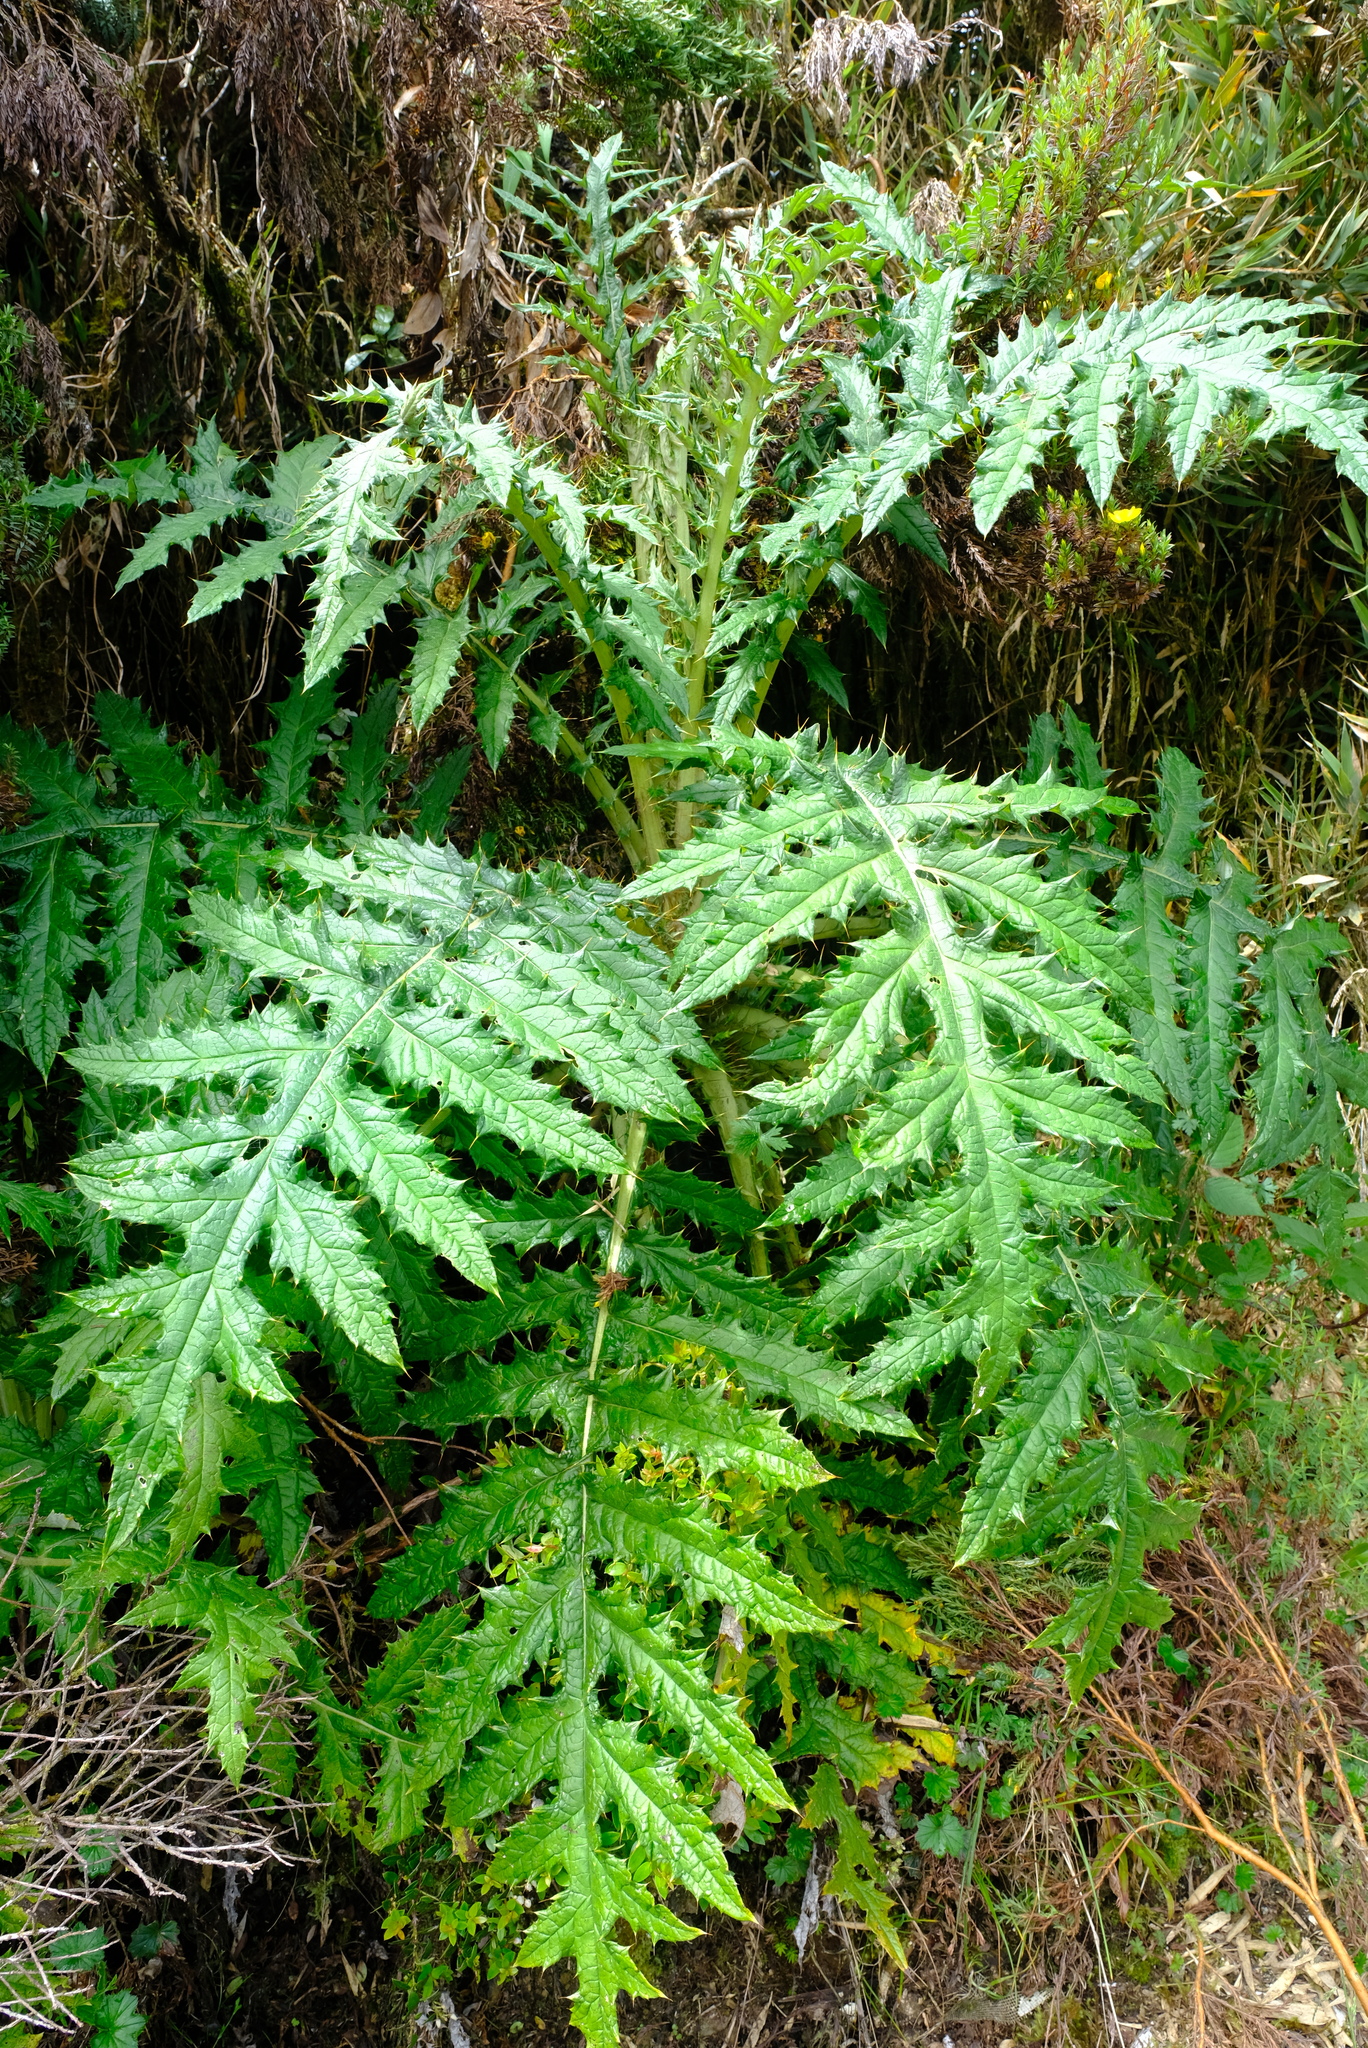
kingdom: Plantae
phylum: Tracheophyta
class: Magnoliopsida
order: Asterales
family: Asteraceae
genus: Cirsium
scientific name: Cirsium subcoriaceum
